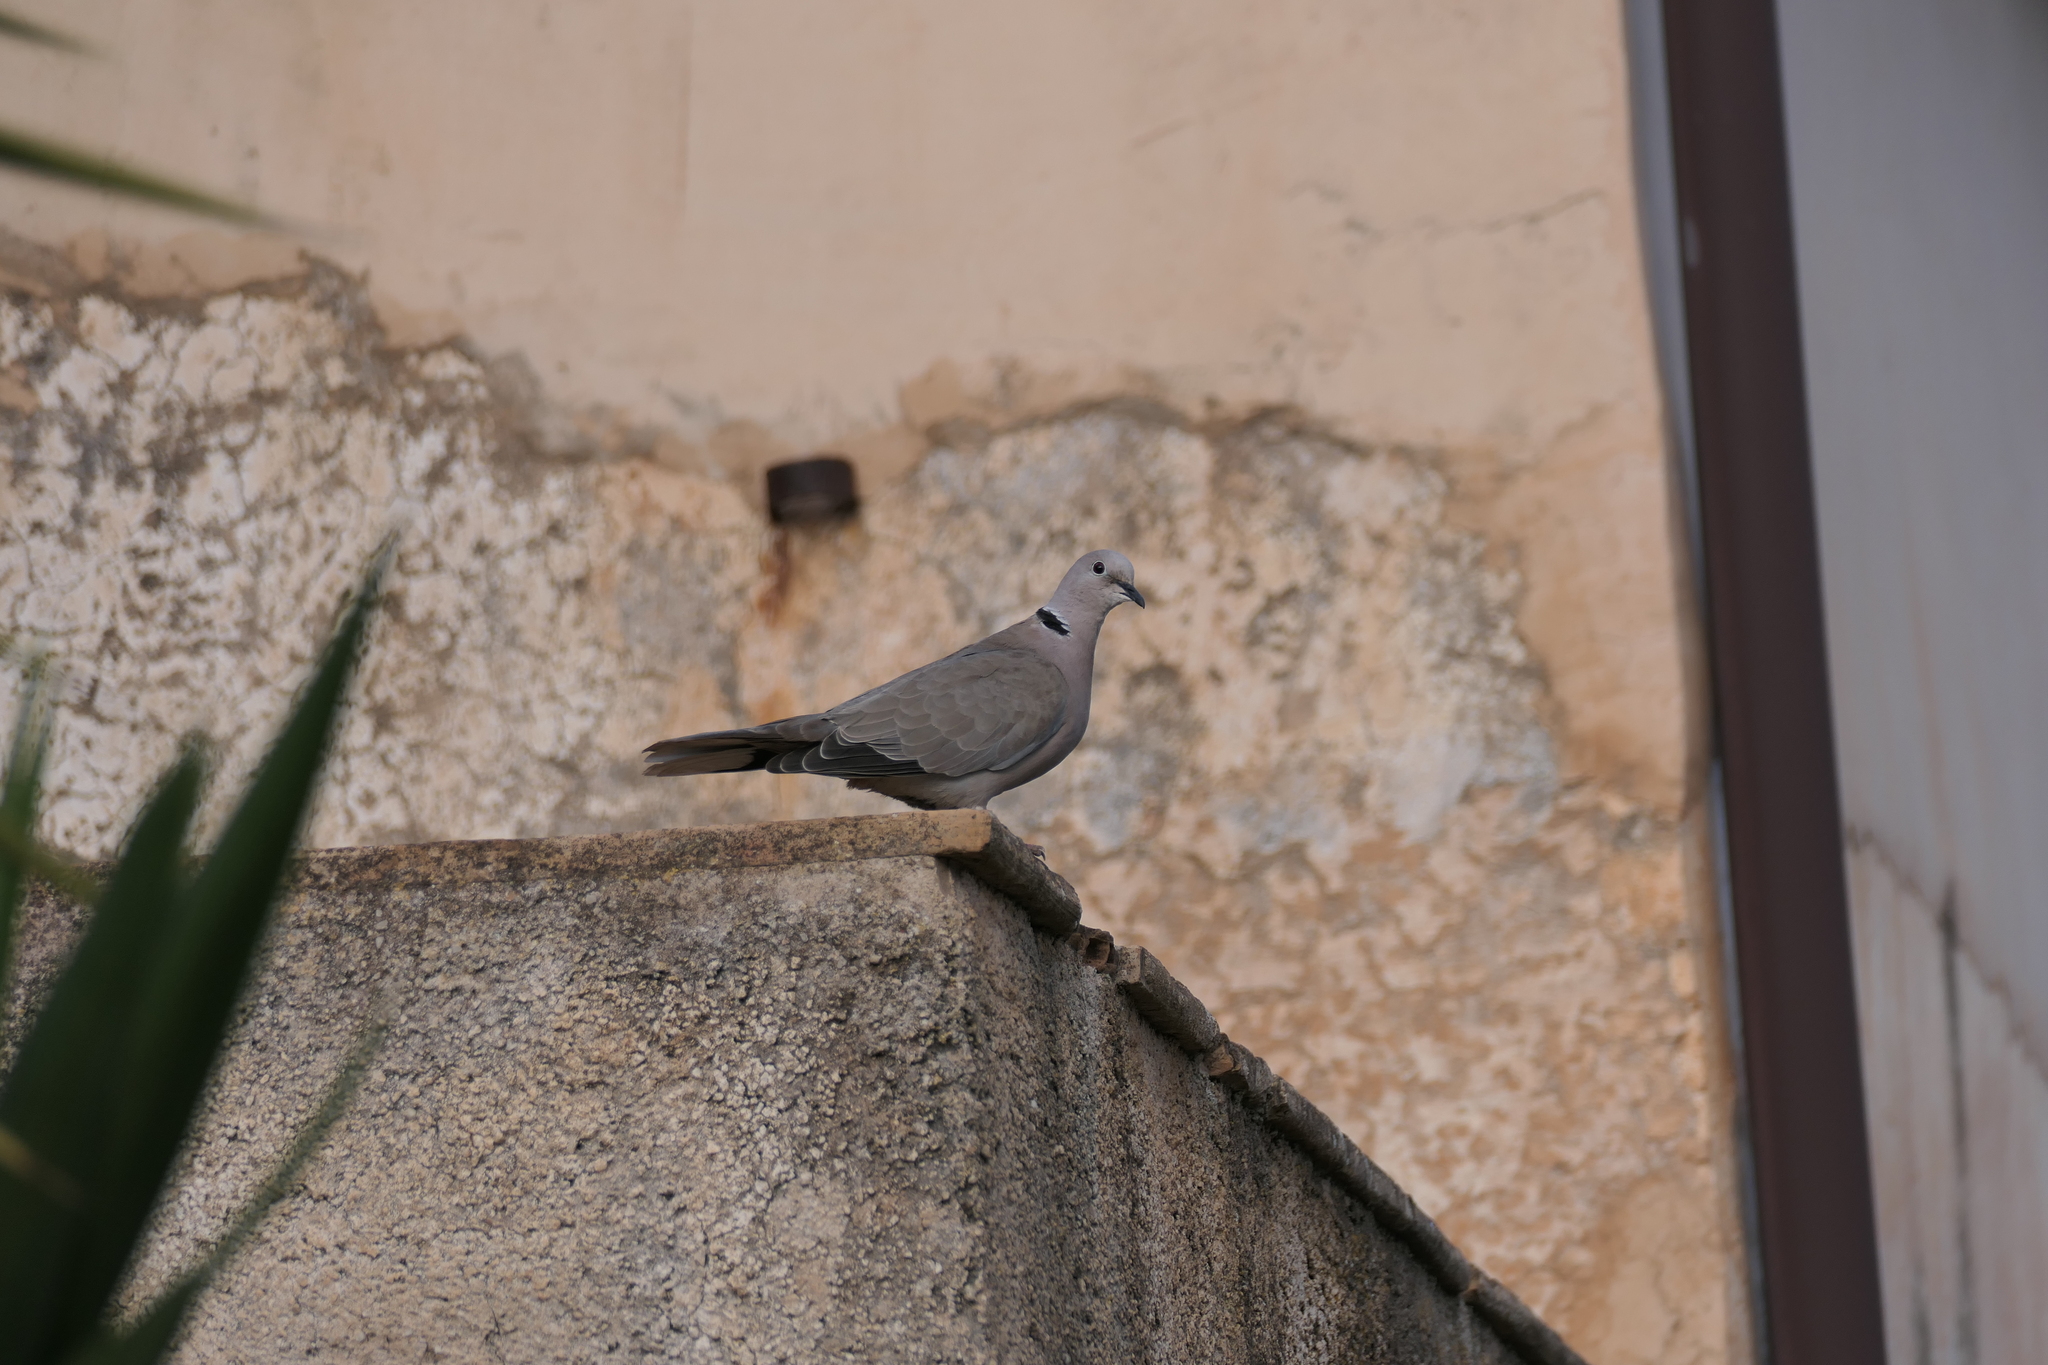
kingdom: Animalia
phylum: Chordata
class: Aves
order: Columbiformes
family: Columbidae
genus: Streptopelia
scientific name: Streptopelia decaocto
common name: Eurasian collared dove
